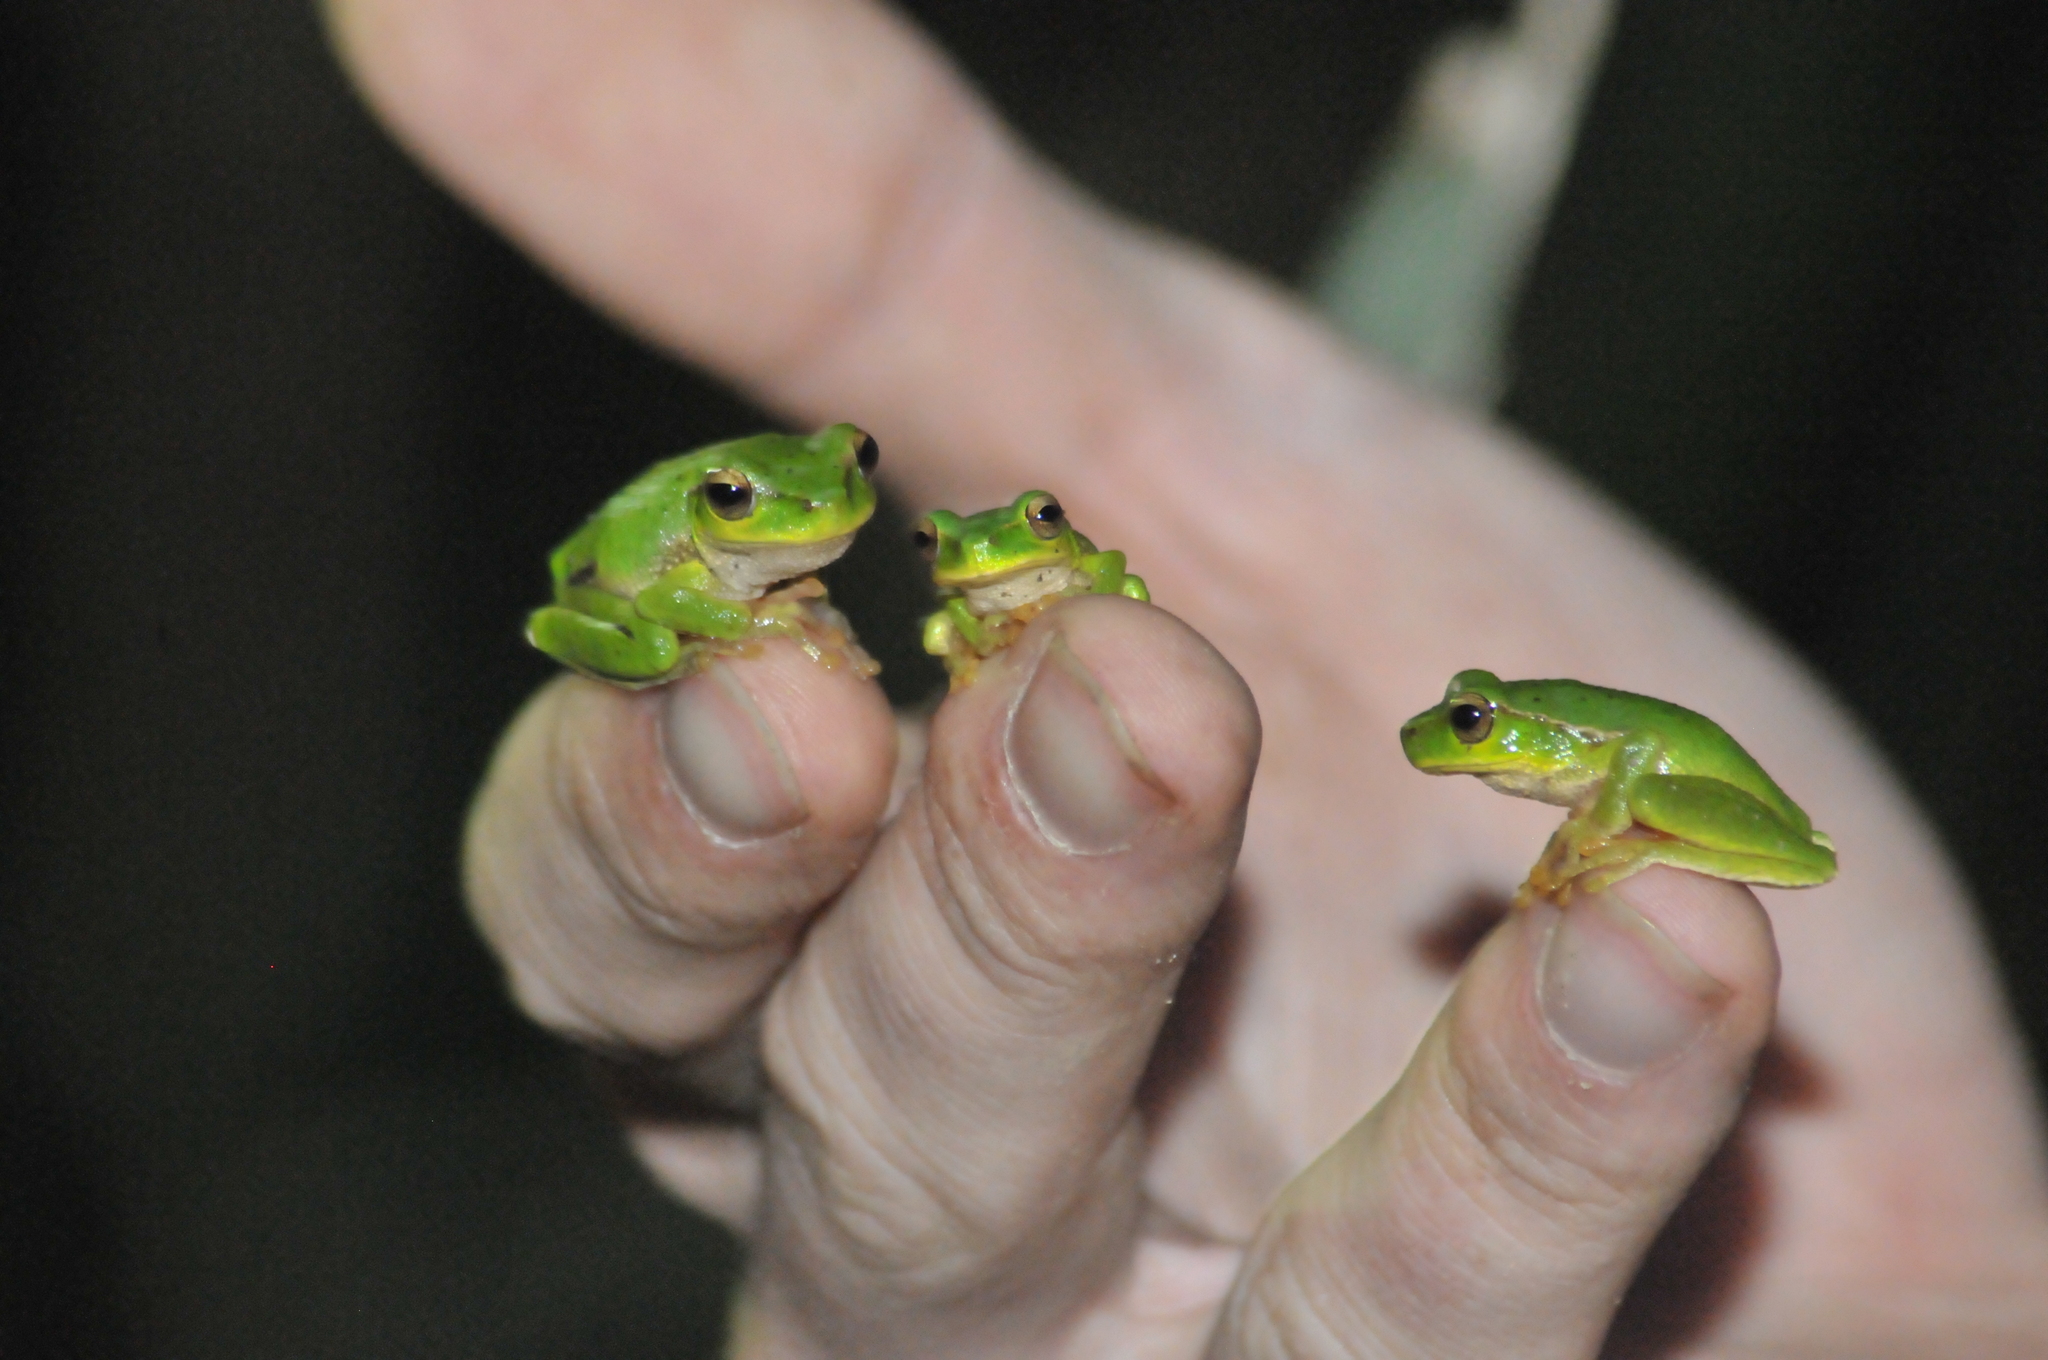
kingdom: Animalia
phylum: Chordata
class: Amphibia
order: Anura
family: Pelodryadidae
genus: Ranoidea
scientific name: Ranoidea barringtonensis
